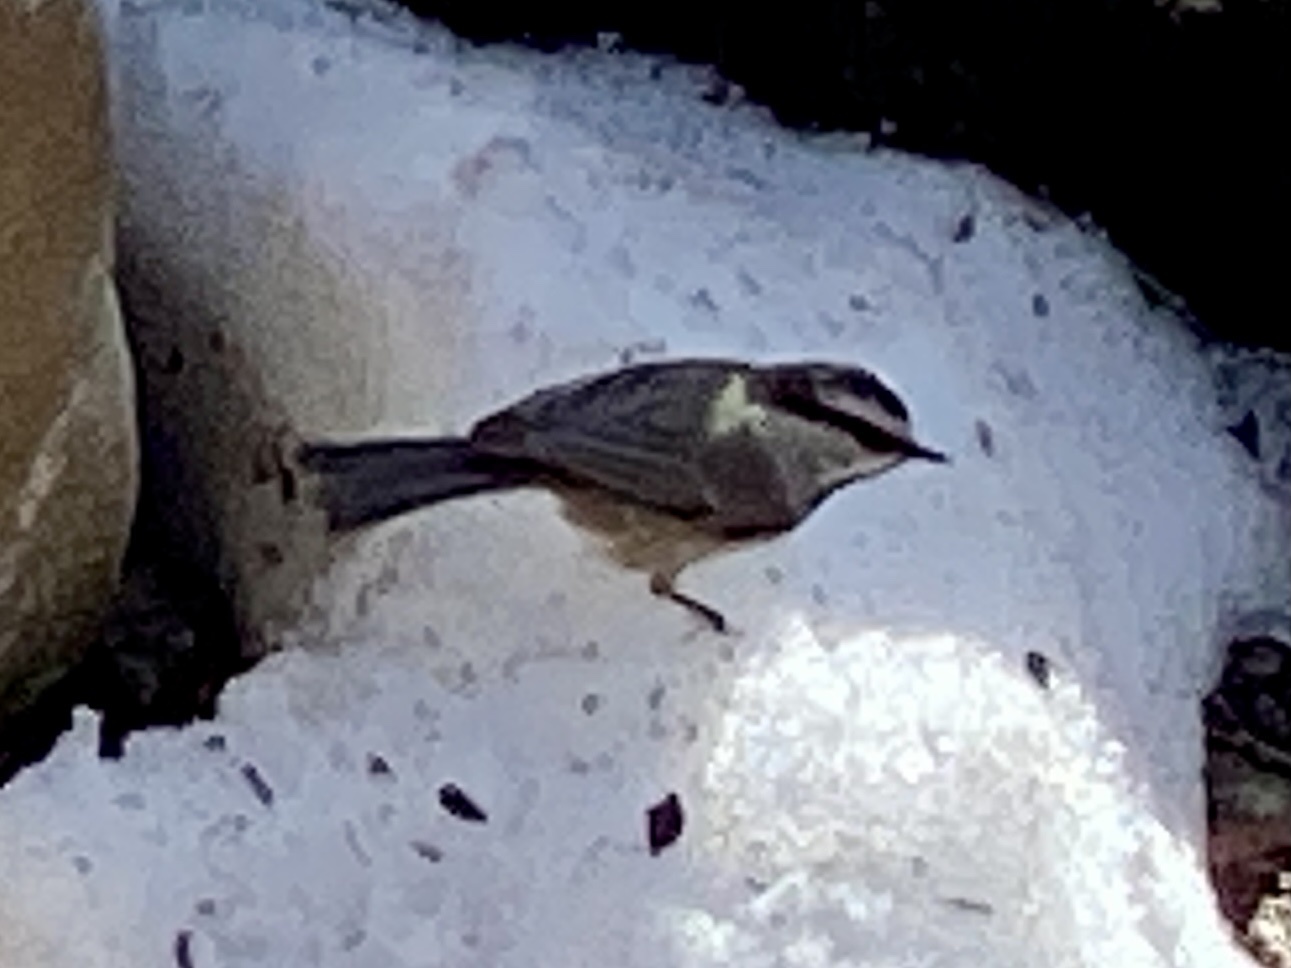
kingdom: Animalia
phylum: Chordata
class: Aves
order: Passeriformes
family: Paridae
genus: Poecile
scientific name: Poecile gambeli
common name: Mountain chickadee
